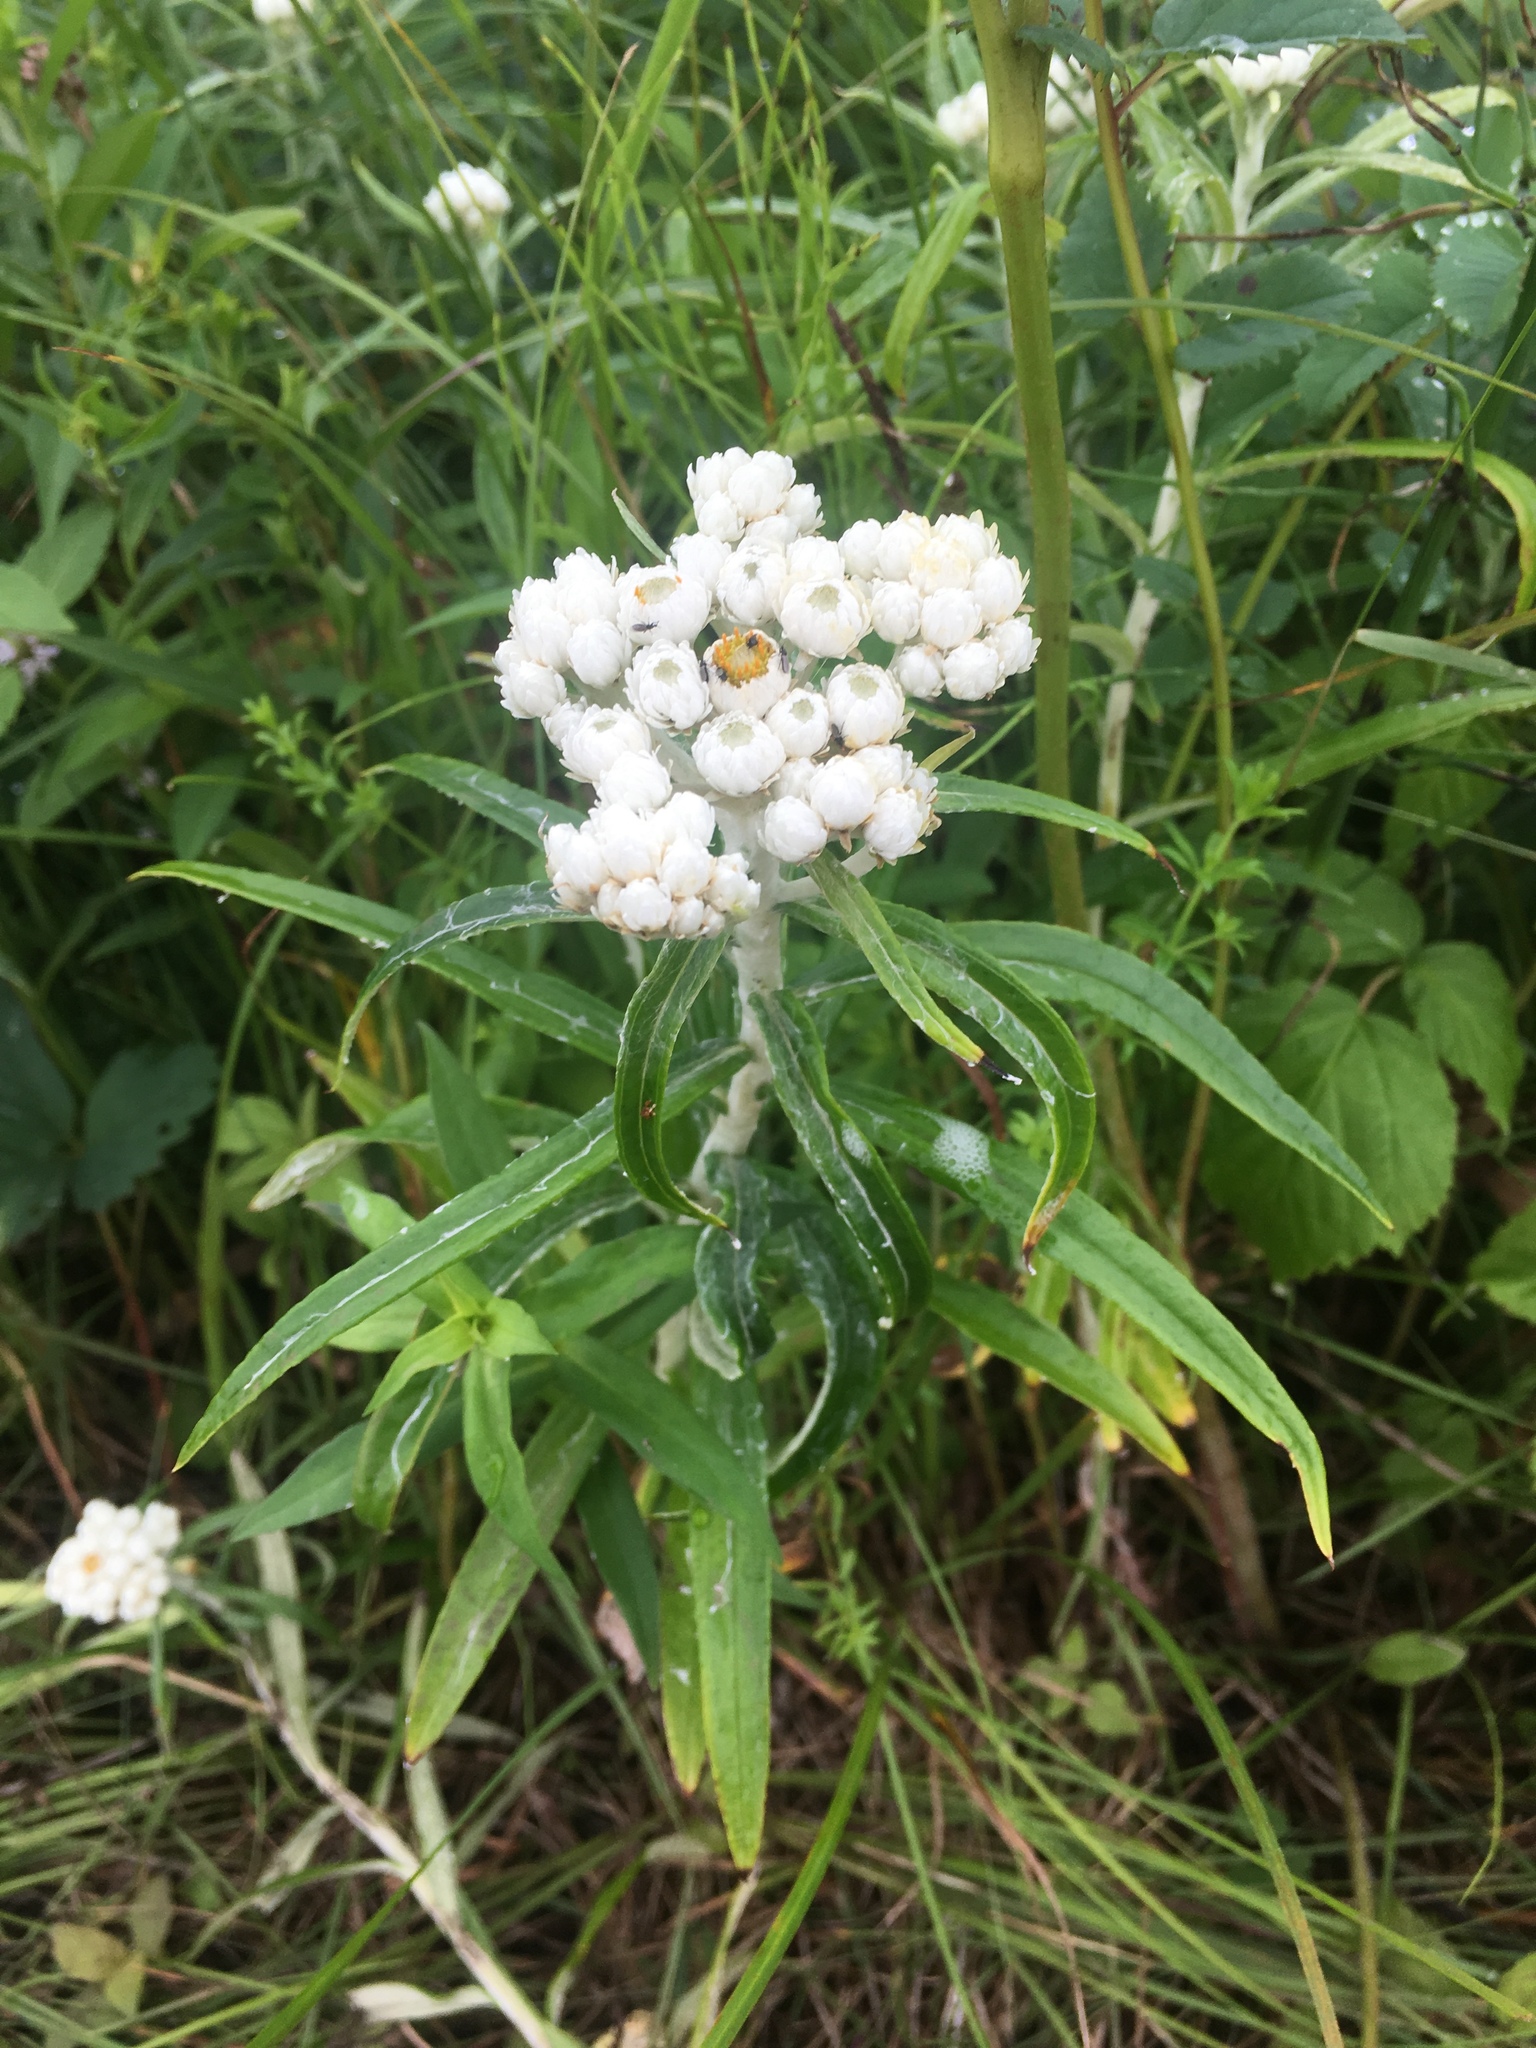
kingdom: Plantae
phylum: Tracheophyta
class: Magnoliopsida
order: Asterales
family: Asteraceae
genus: Anaphalis
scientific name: Anaphalis margaritacea
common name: Pearly everlasting
